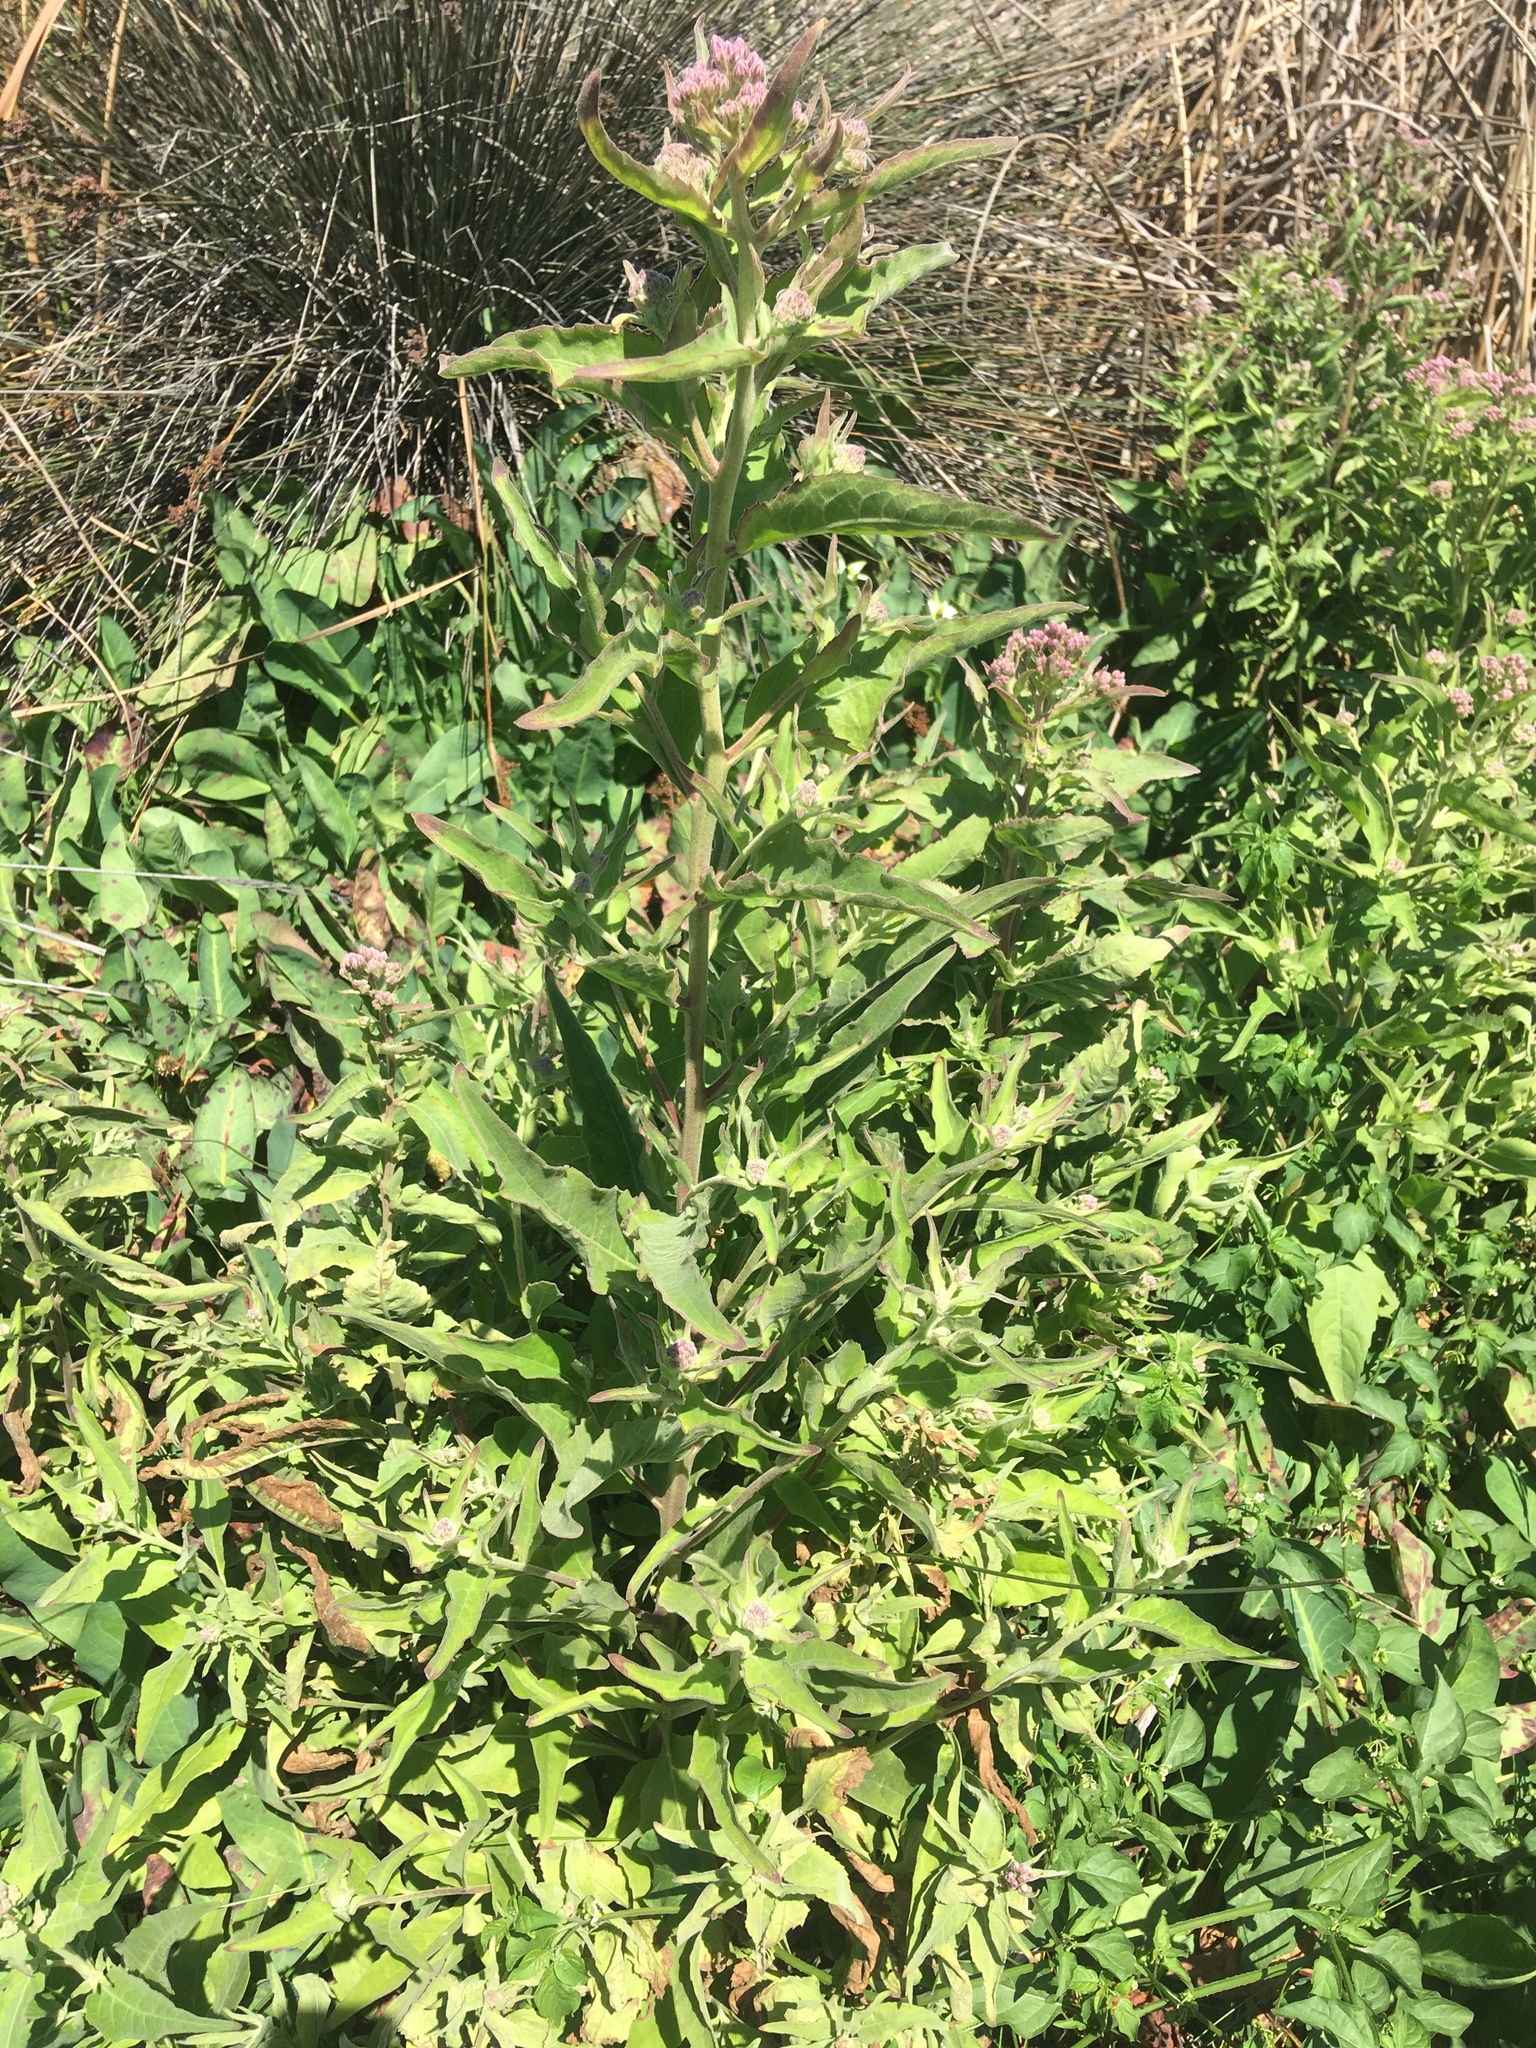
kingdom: Plantae
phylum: Tracheophyta
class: Magnoliopsida
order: Asterales
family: Asteraceae
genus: Pluchea
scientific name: Pluchea odorata
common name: Saltmarsh fleabane
